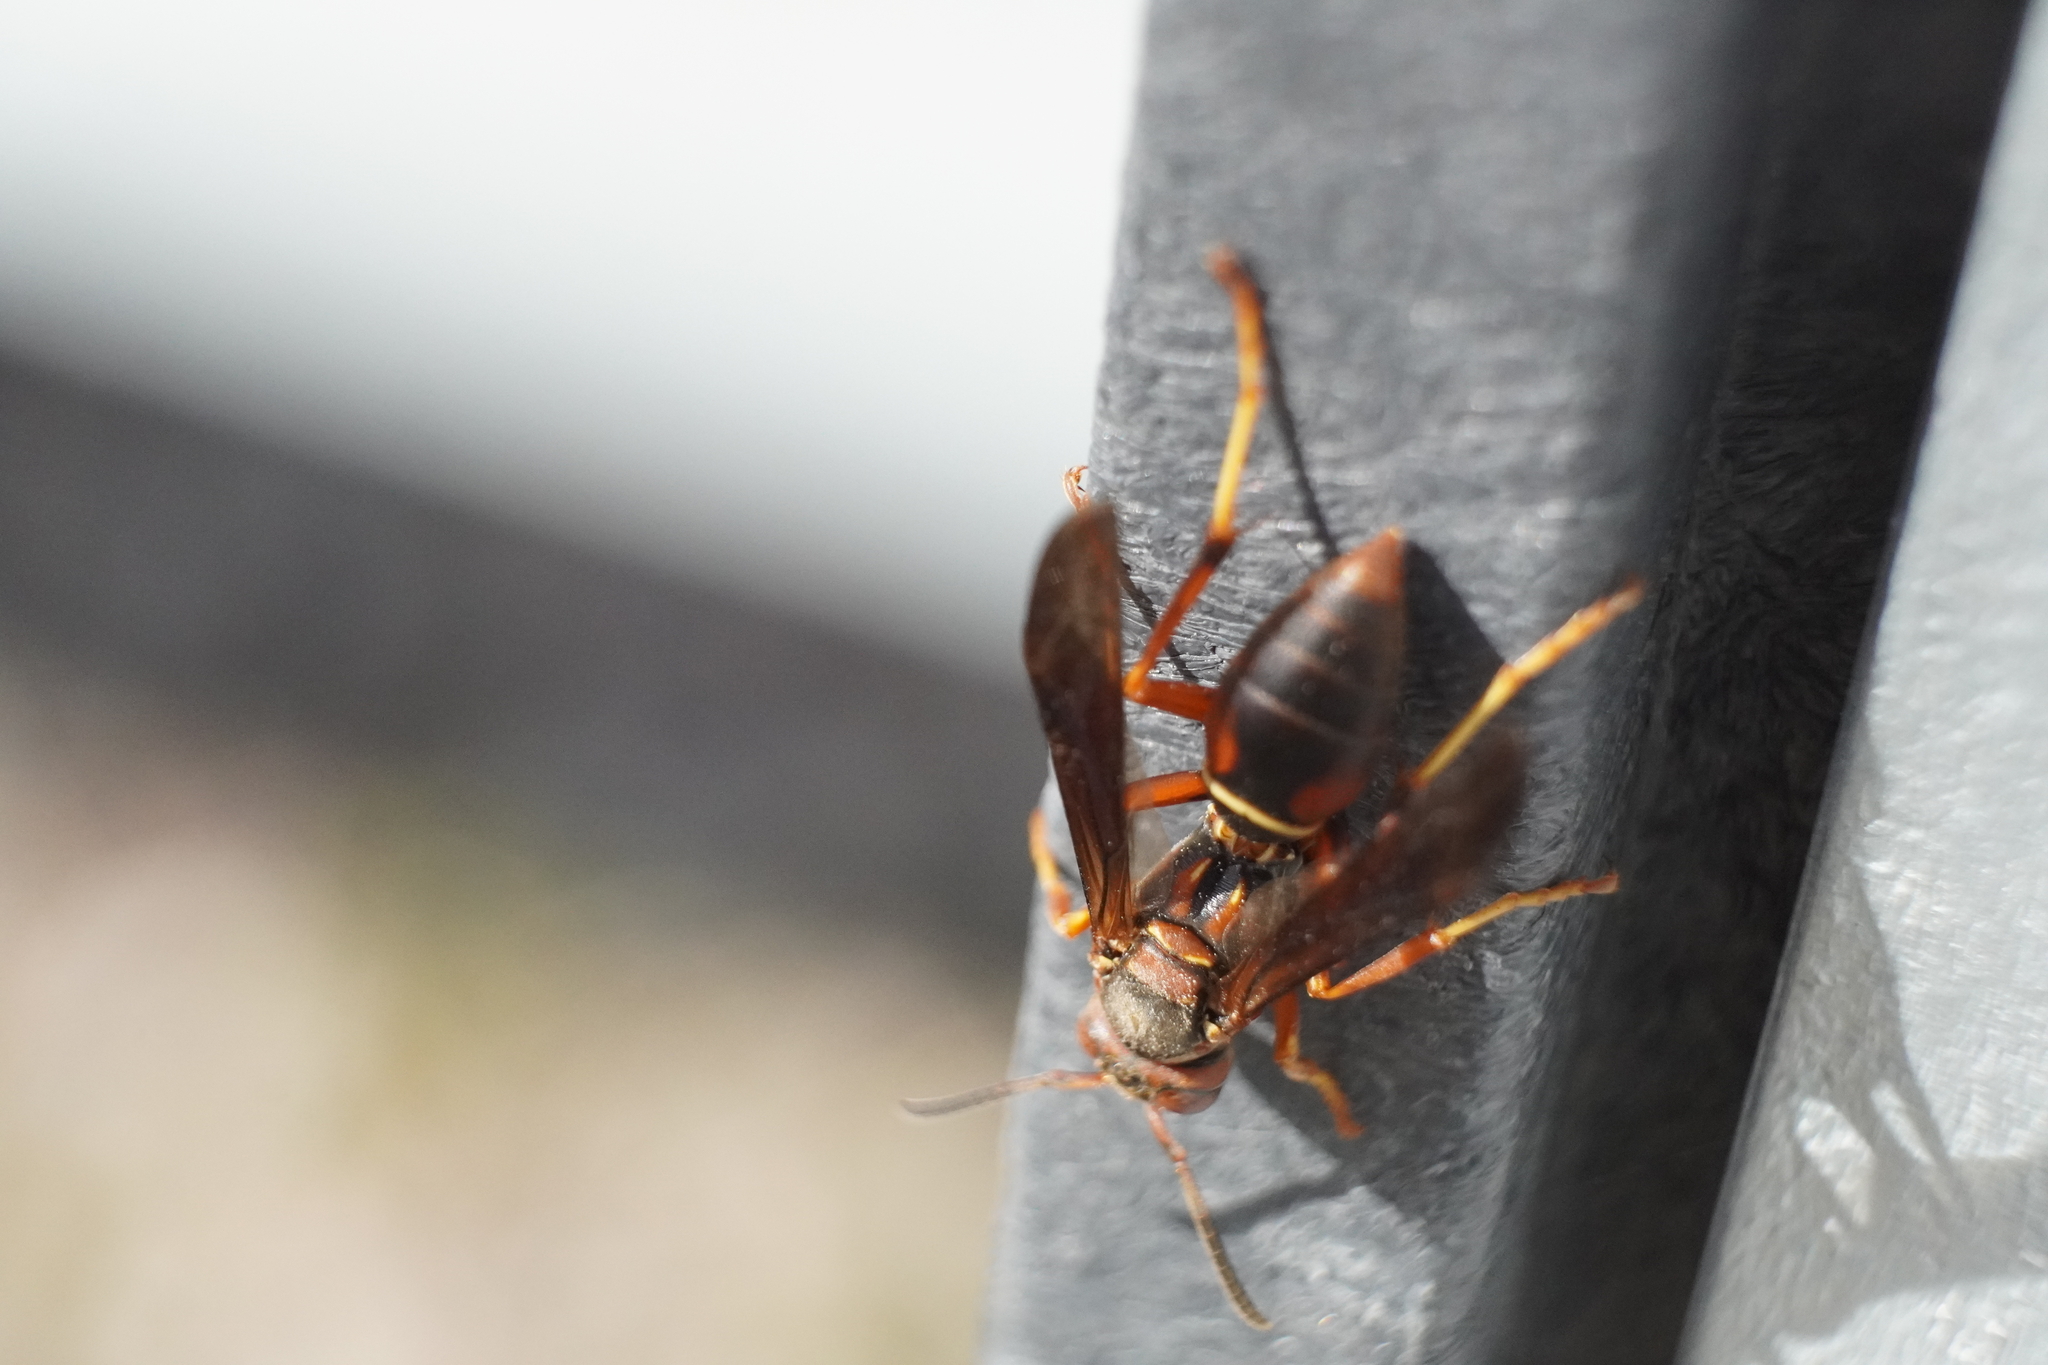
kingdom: Animalia
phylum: Arthropoda
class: Insecta
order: Hymenoptera
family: Eumenidae
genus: Polistes
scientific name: Polistes fuscatus
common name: Dark paper wasp
